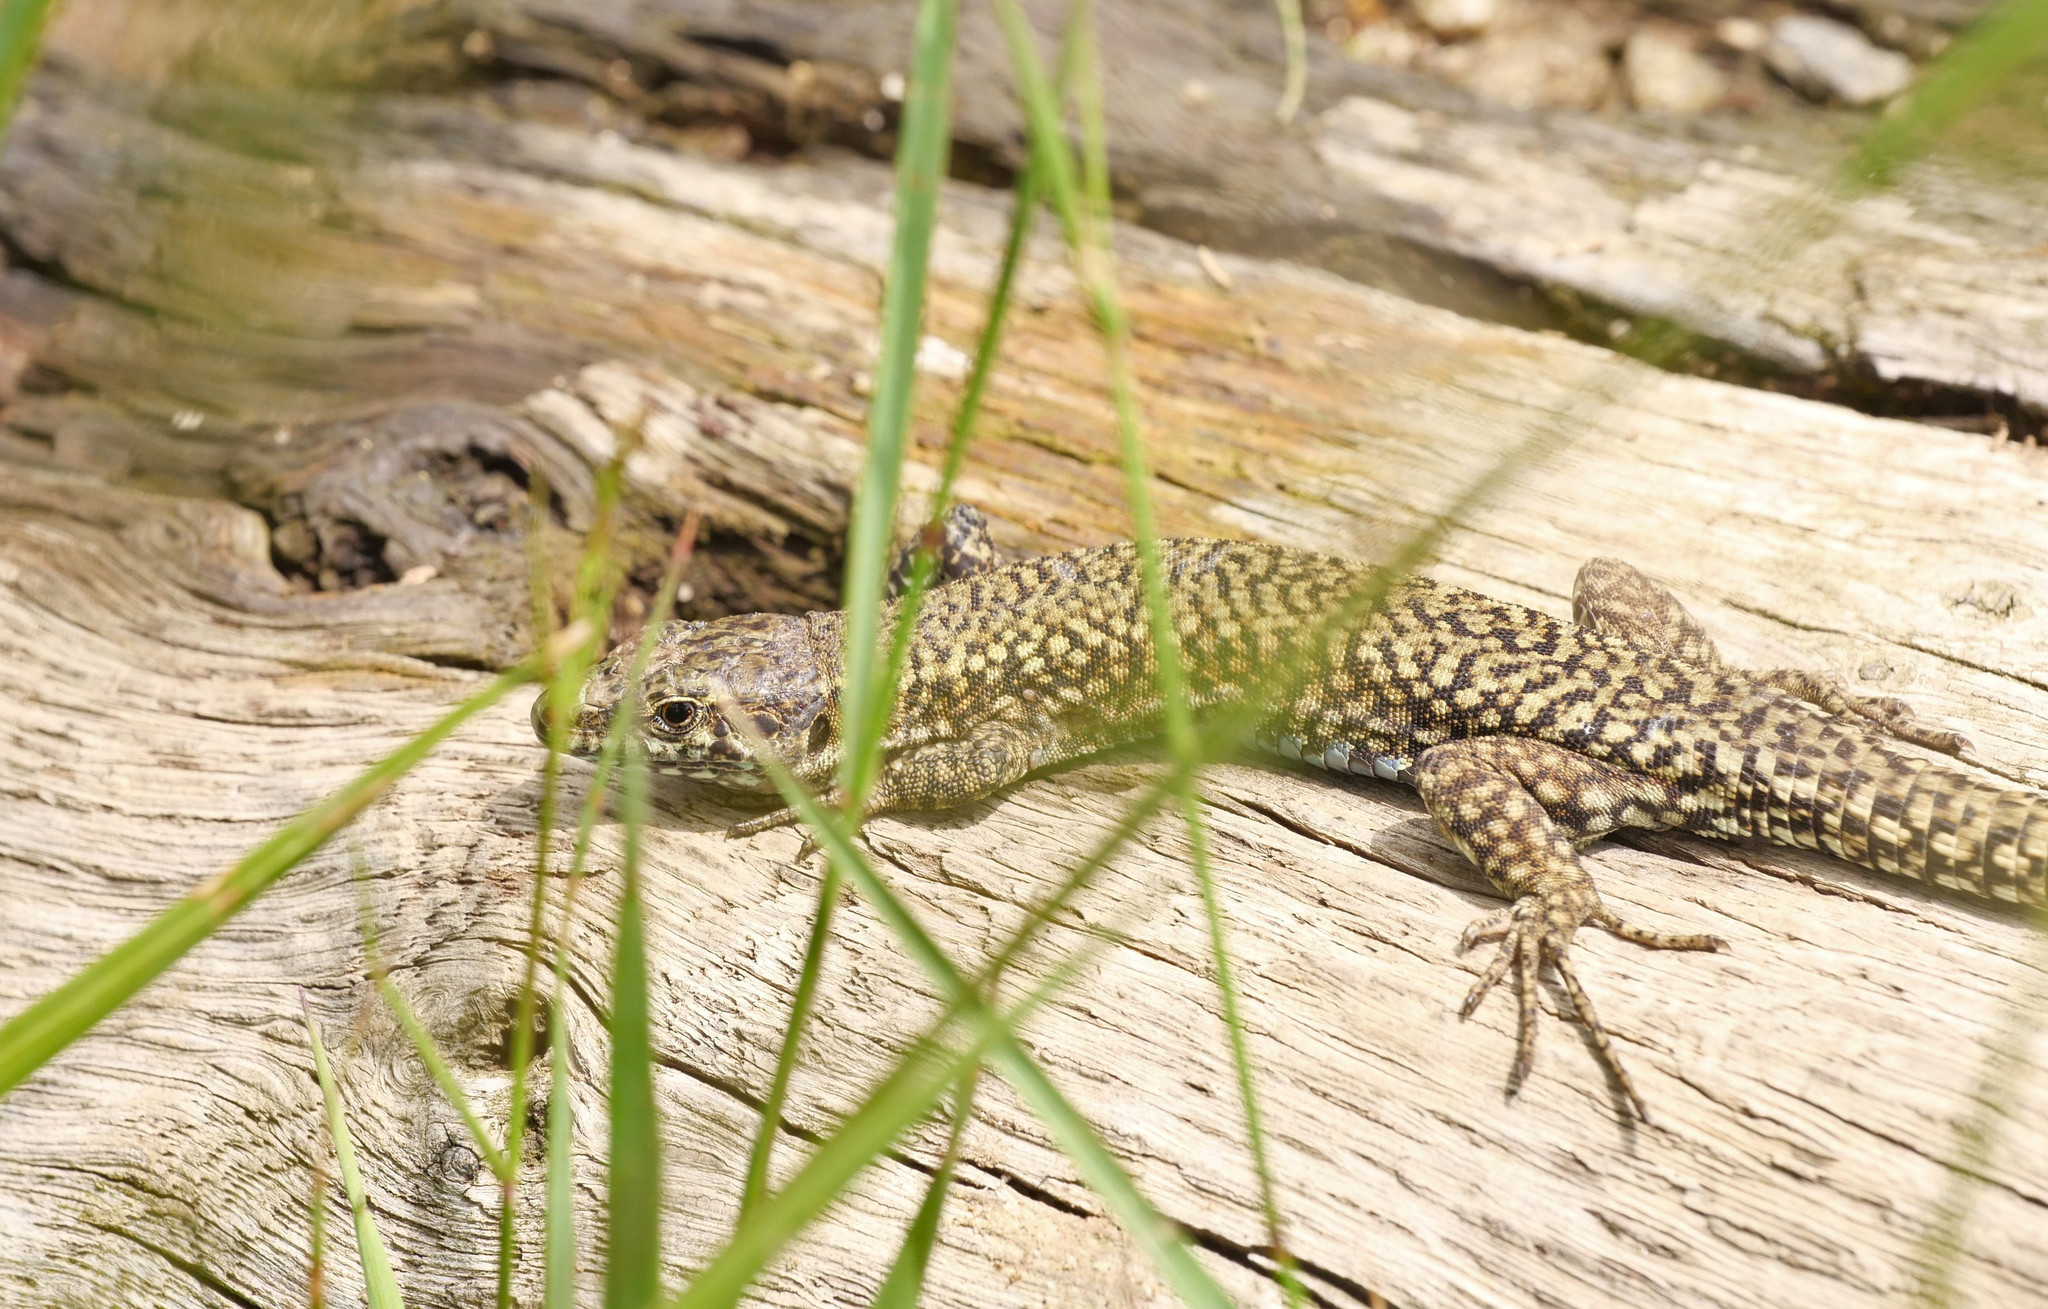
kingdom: Animalia
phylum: Chordata
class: Squamata
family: Lacertidae
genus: Podarcis
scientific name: Podarcis muralis
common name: Common wall lizard
